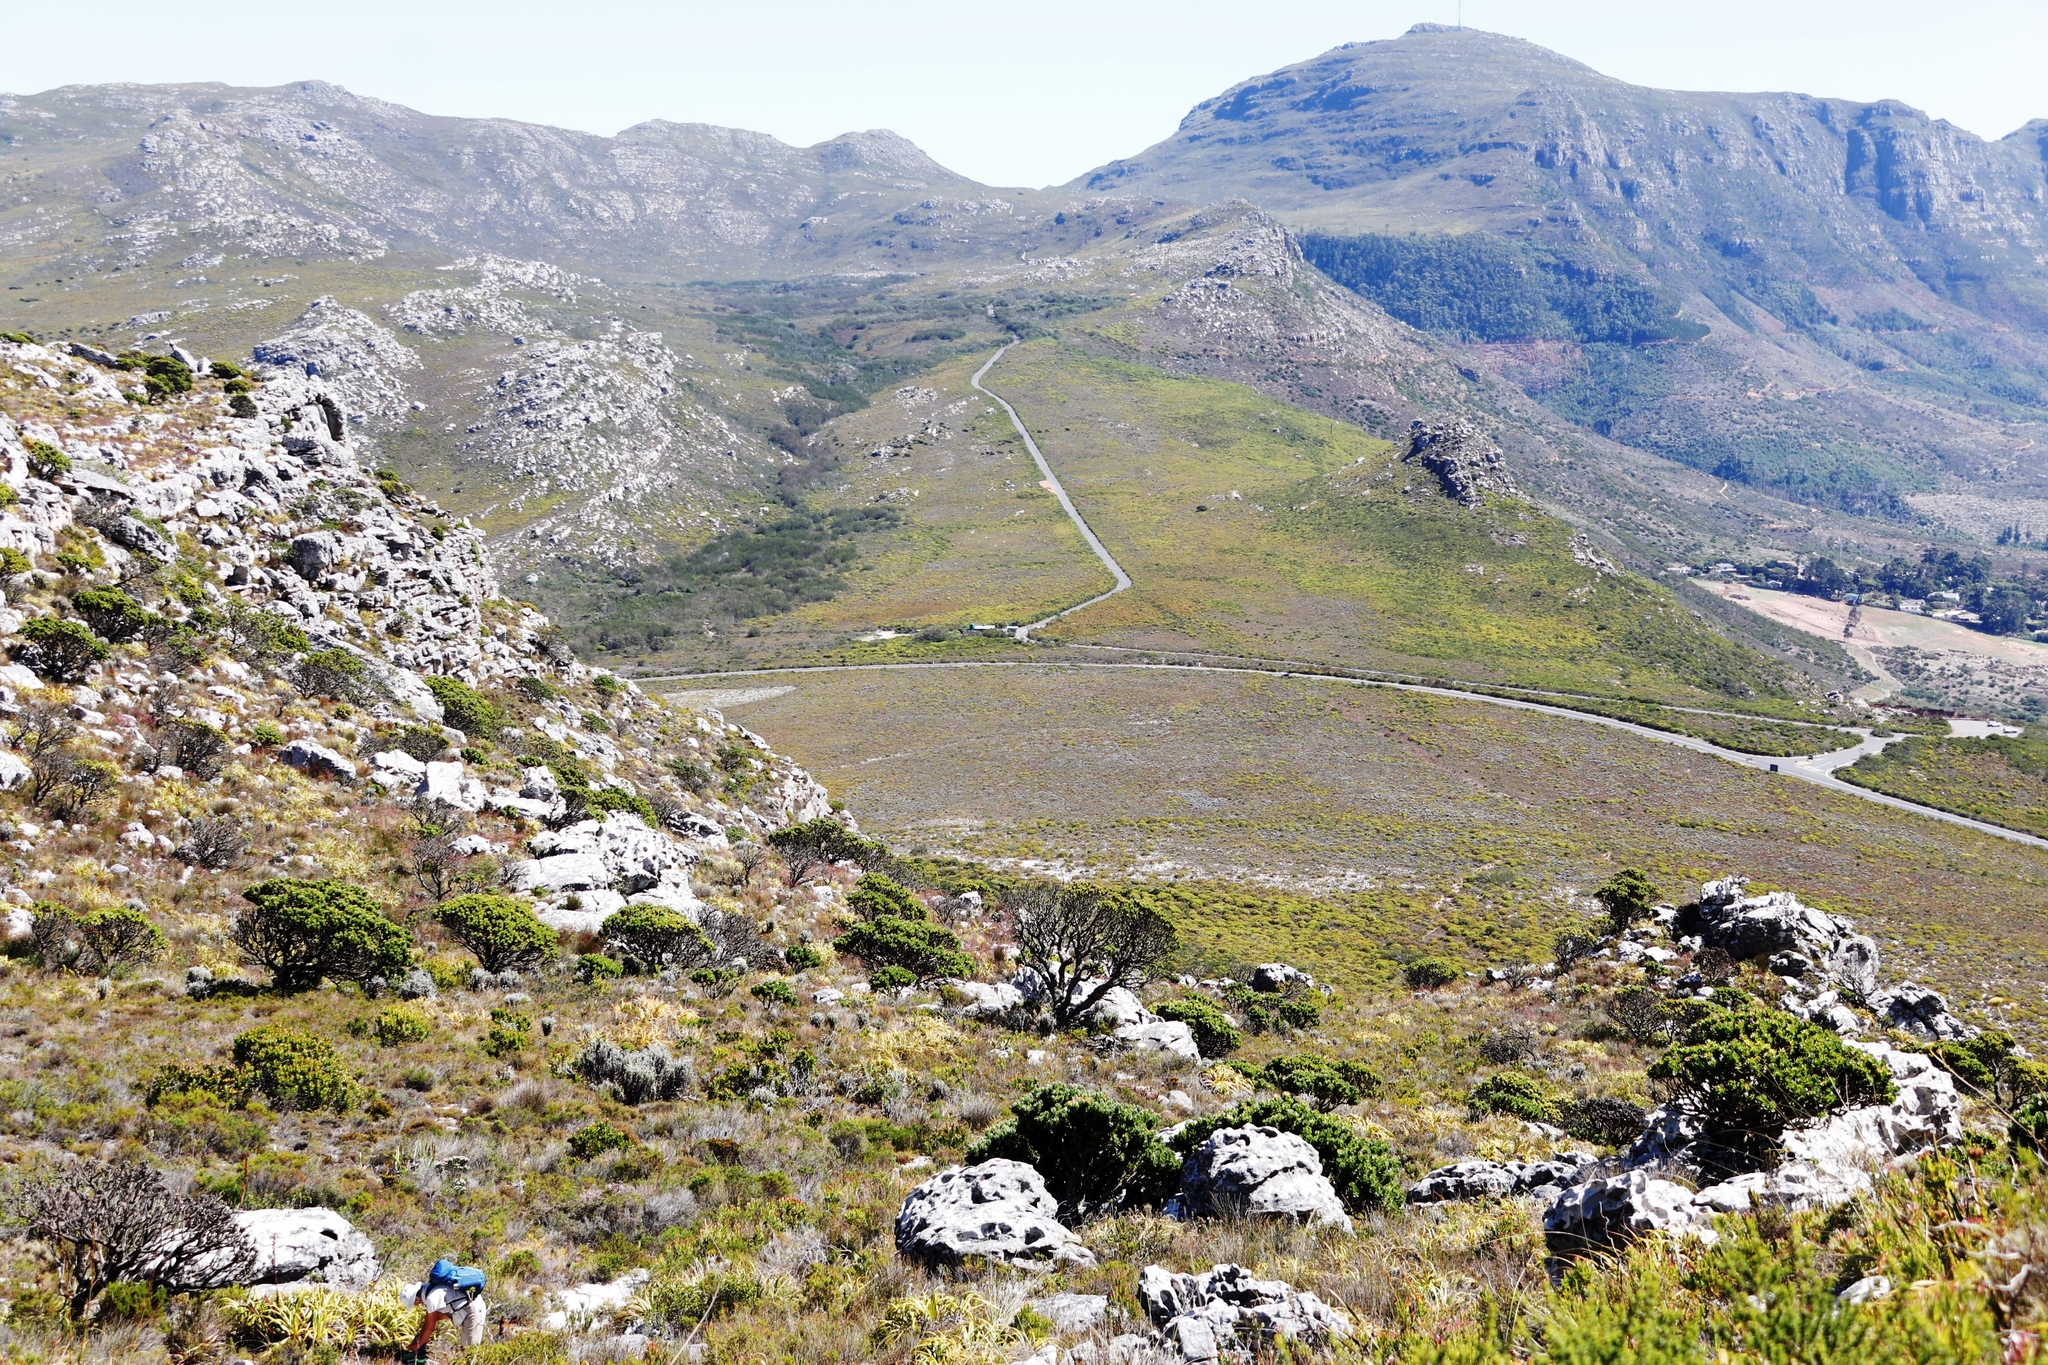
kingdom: Plantae
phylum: Tracheophyta
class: Magnoliopsida
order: Proteales
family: Proteaceae
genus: Mimetes
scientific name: Mimetes fimbriifolius
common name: Fringed bottlebrush
